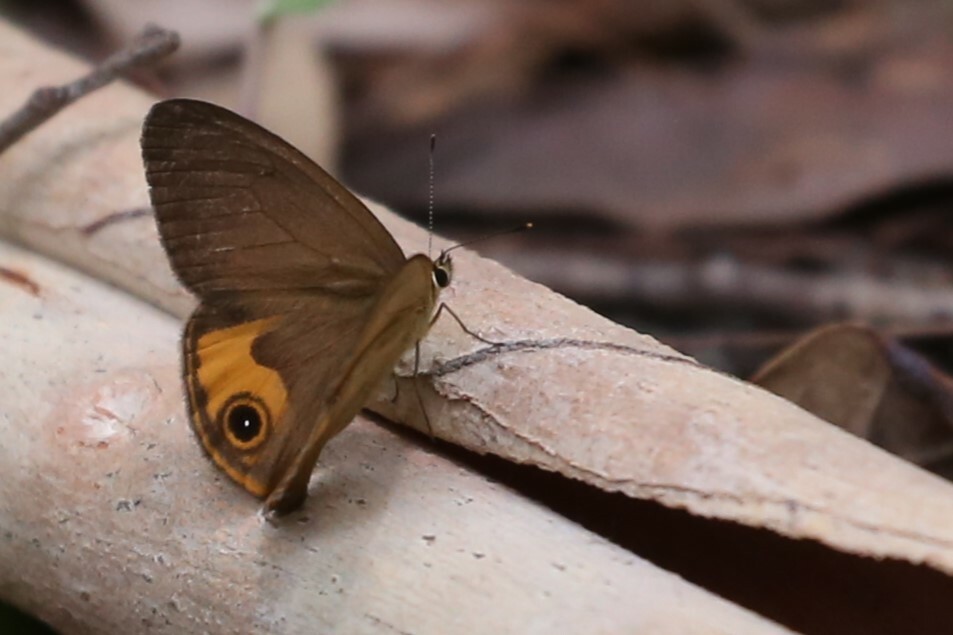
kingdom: Animalia
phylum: Arthropoda
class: Insecta
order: Lepidoptera
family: Nymphalidae
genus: Hypocysta
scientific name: Hypocysta metirius
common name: Brown ringlet
